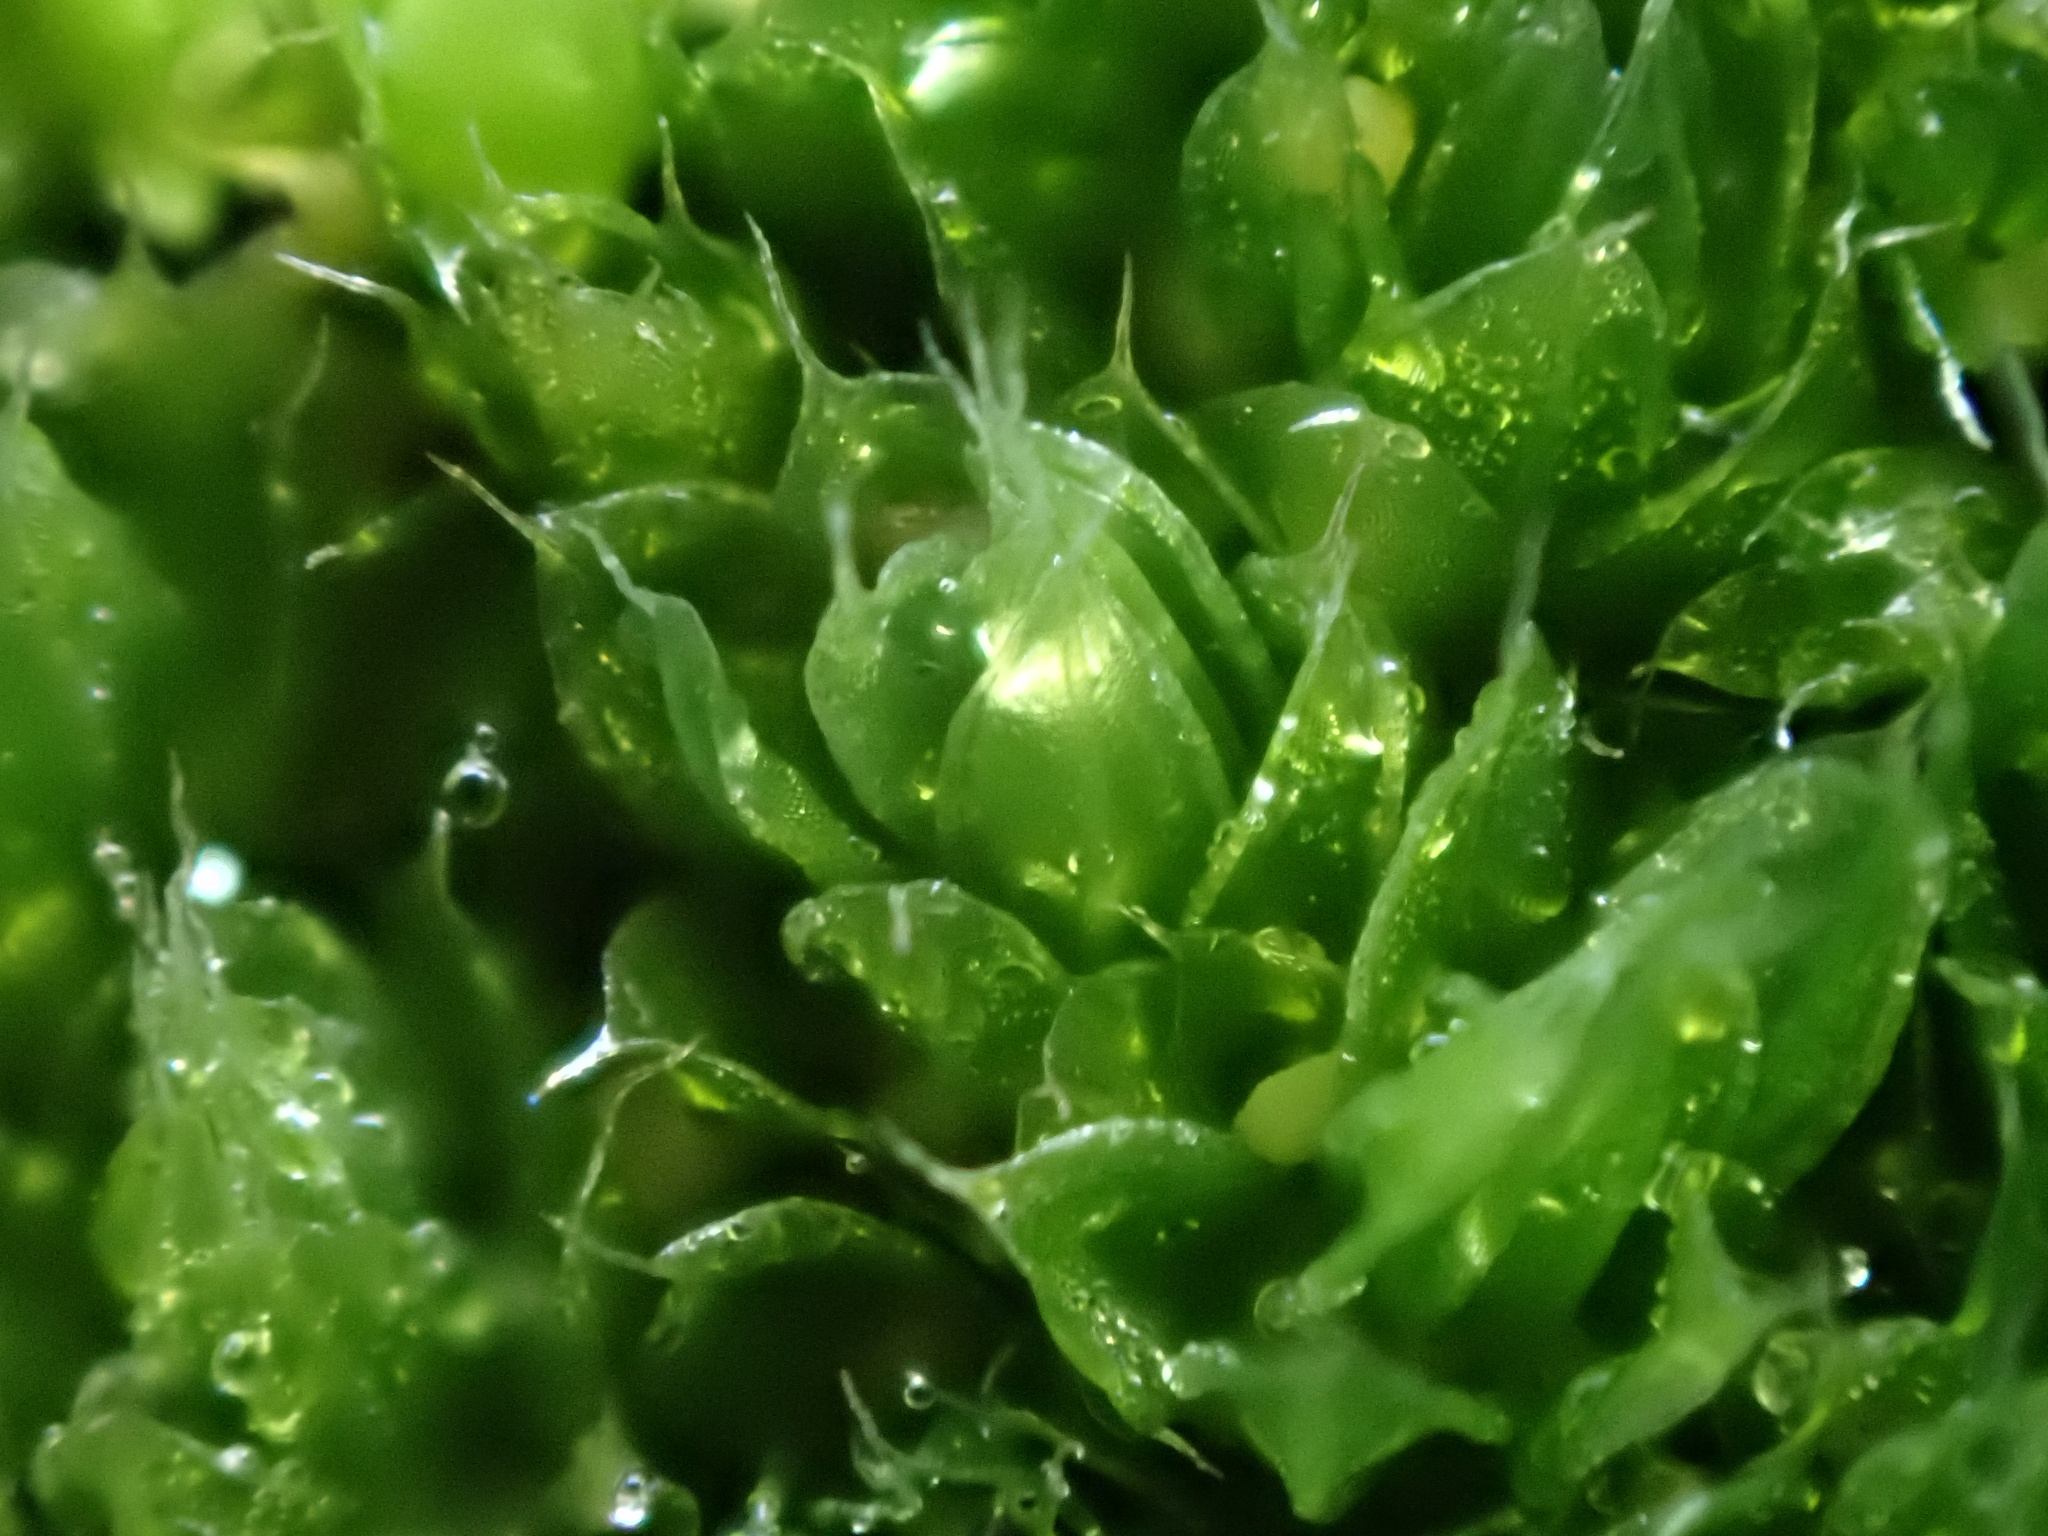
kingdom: Plantae
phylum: Bryophyta
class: Bryopsida
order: Bryales
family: Bryaceae
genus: Rosulabryum
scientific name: Rosulabryum capillare
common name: Capillary thread-moss
